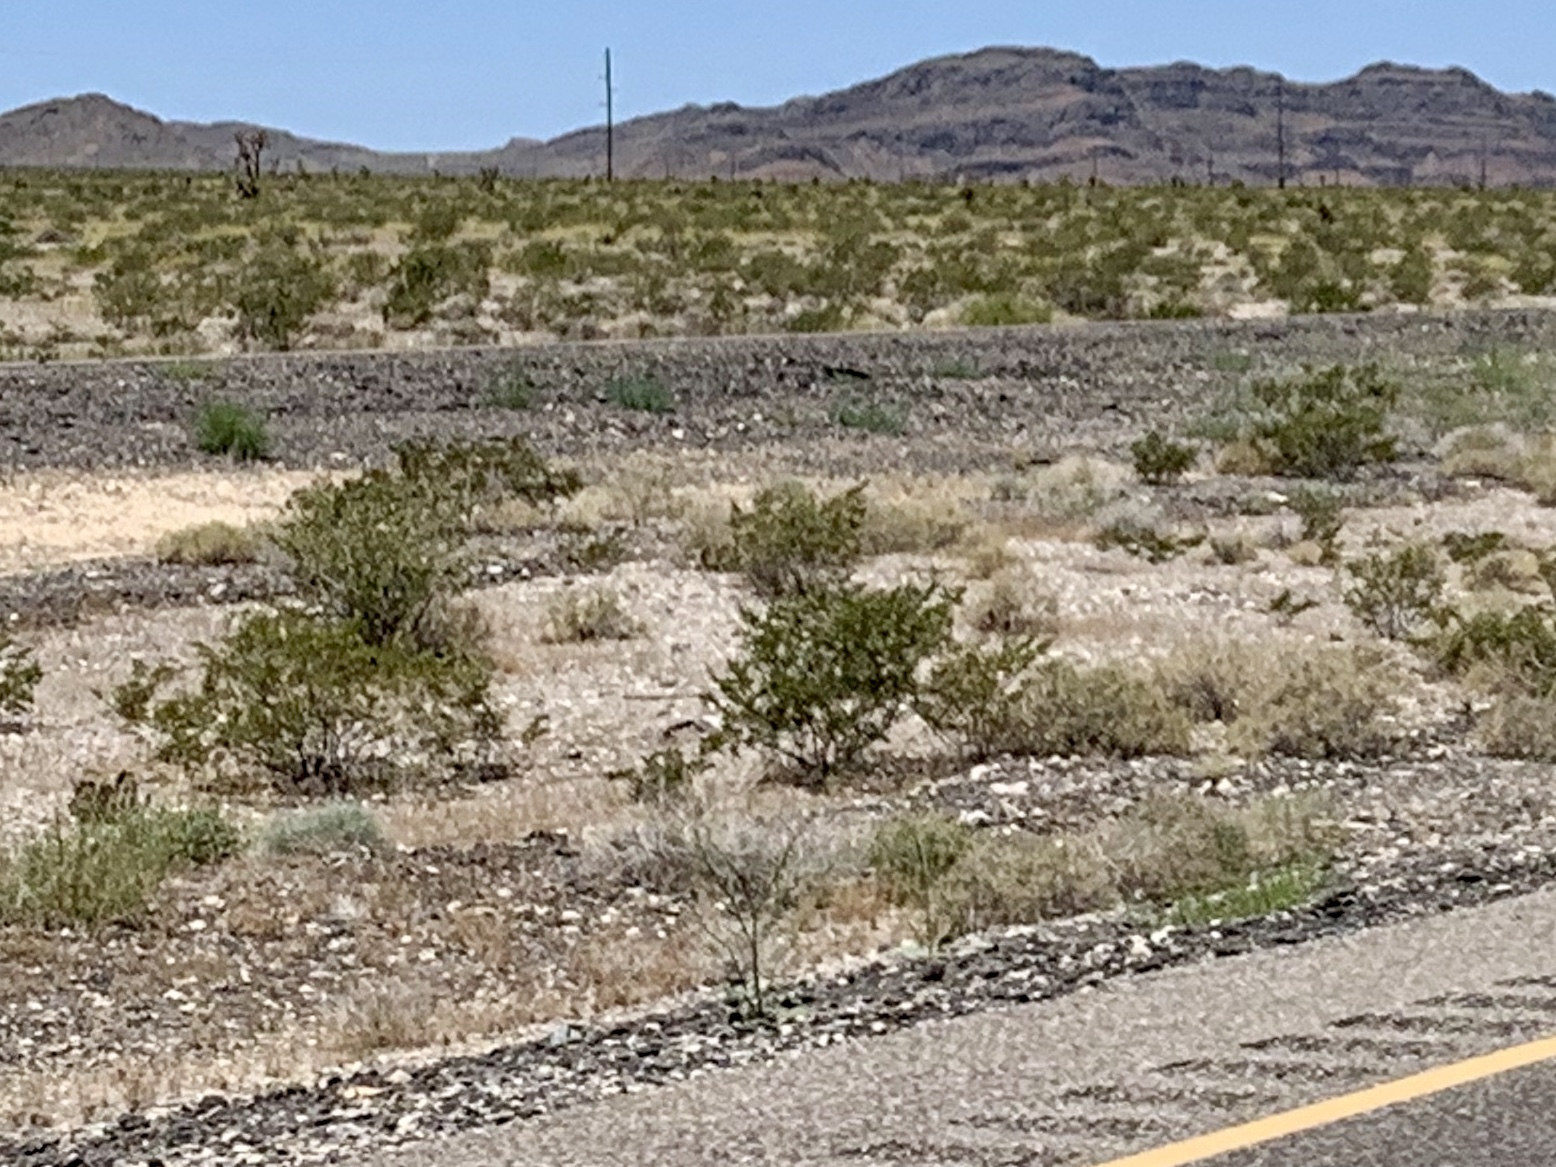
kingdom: Plantae
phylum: Tracheophyta
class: Magnoliopsida
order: Zygophyllales
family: Zygophyllaceae
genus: Larrea
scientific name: Larrea tridentata
